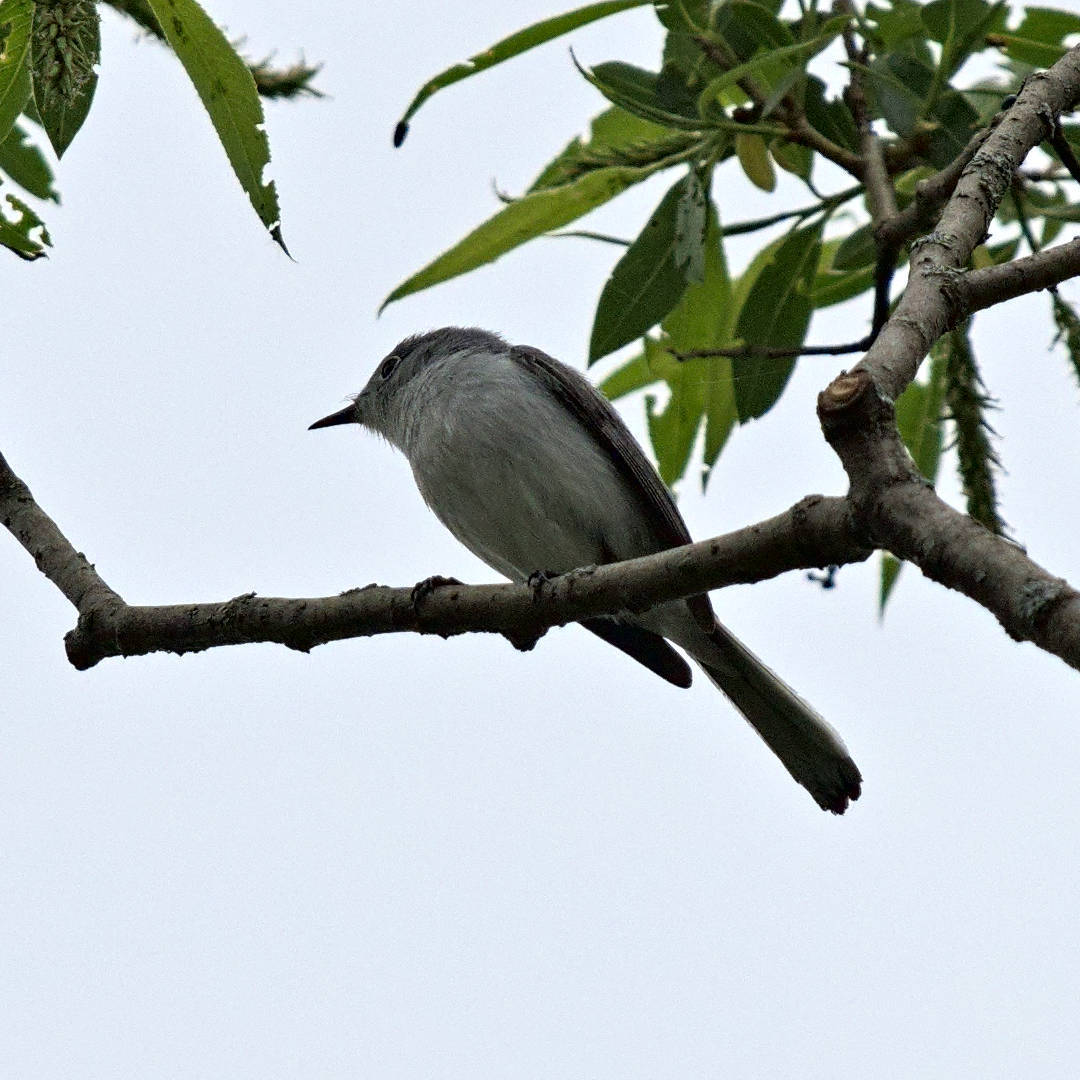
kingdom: Animalia
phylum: Chordata
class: Aves
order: Passeriformes
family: Polioptilidae
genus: Polioptila
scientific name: Polioptila caerulea
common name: Blue-gray gnatcatcher
